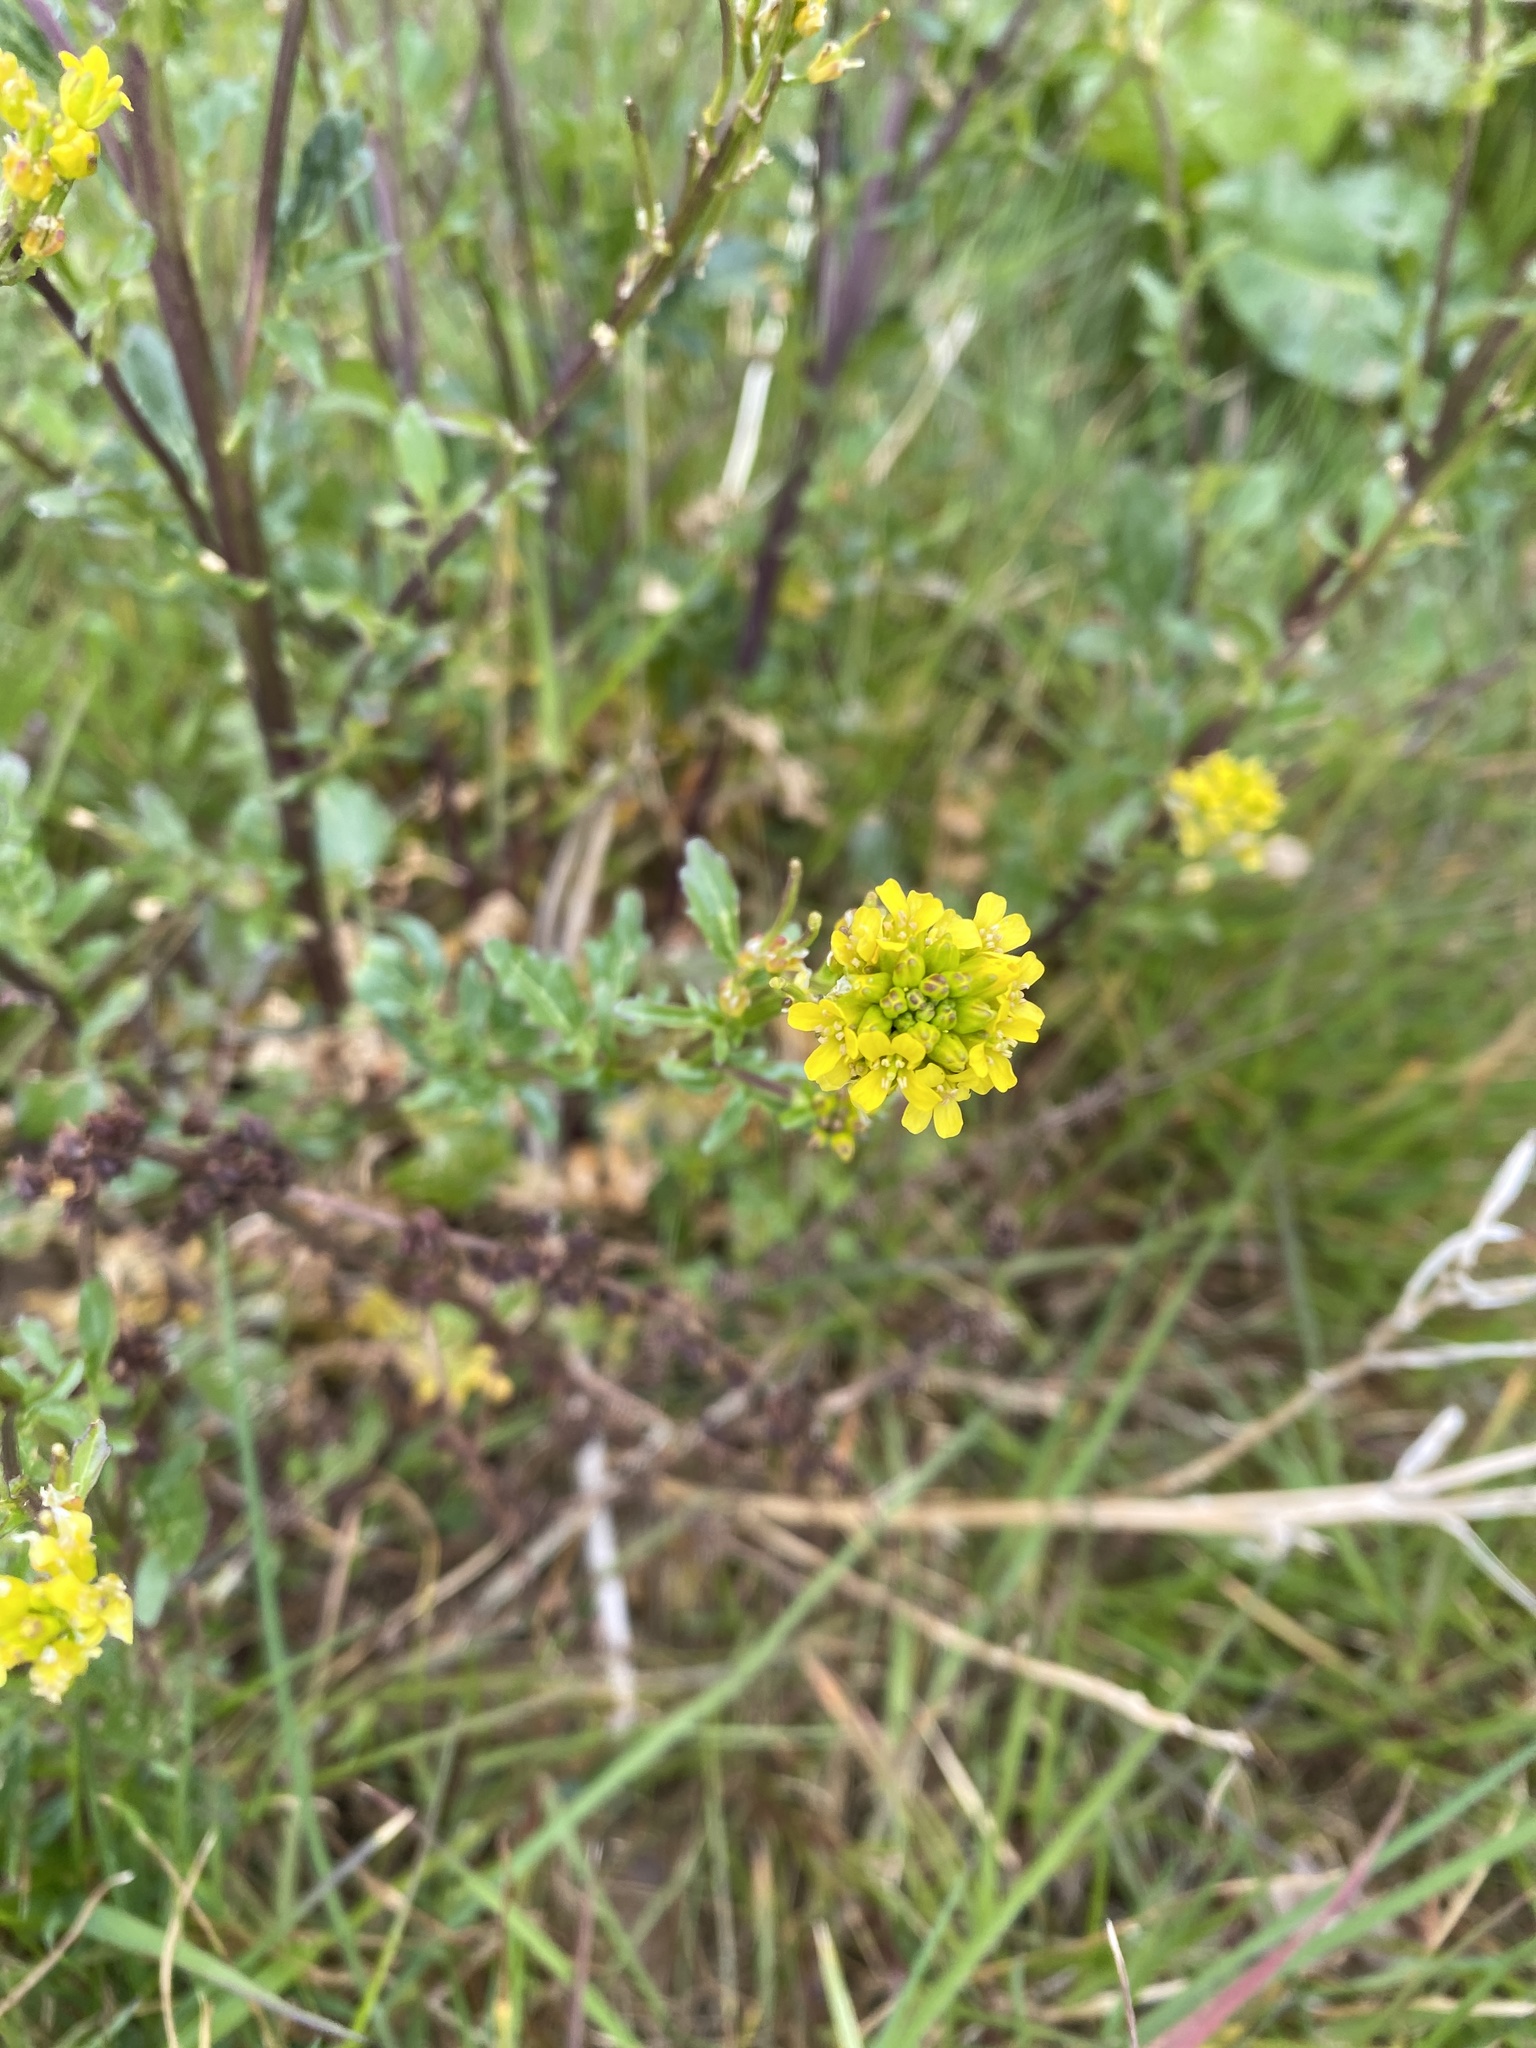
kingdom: Plantae
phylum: Tracheophyta
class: Magnoliopsida
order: Brassicales
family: Brassicaceae
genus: Barbarea
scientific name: Barbarea vulgaris
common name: Cressy-greens
